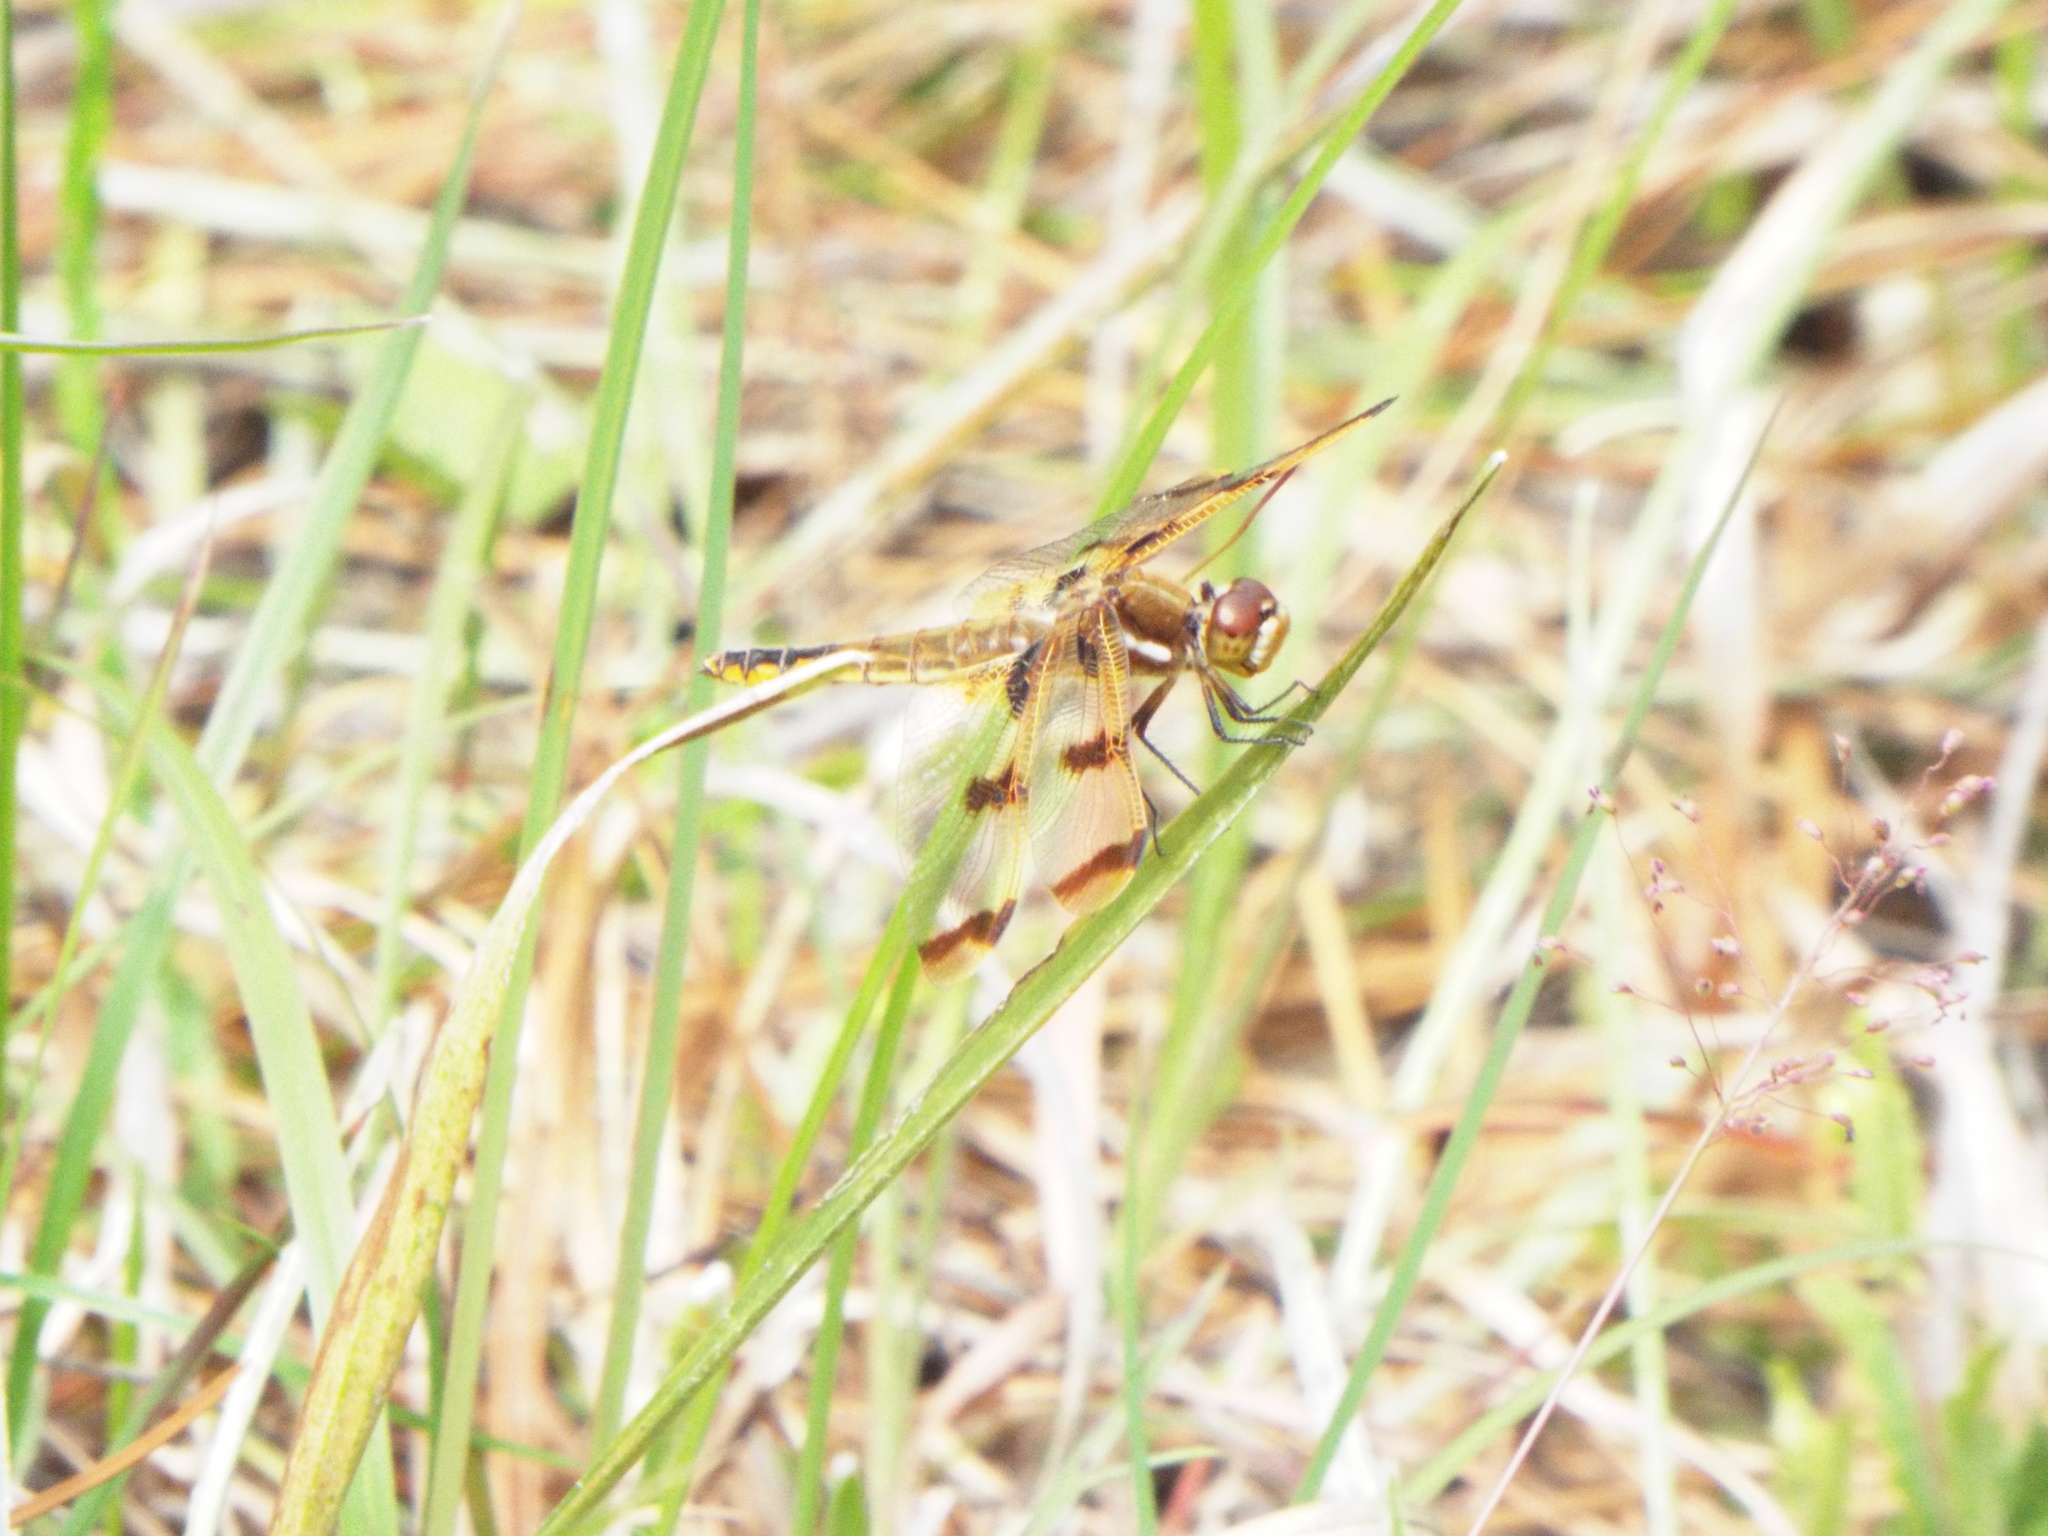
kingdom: Animalia
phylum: Arthropoda
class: Insecta
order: Odonata
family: Libellulidae
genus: Libellula
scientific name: Libellula semifasciata
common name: Painted skimmer
